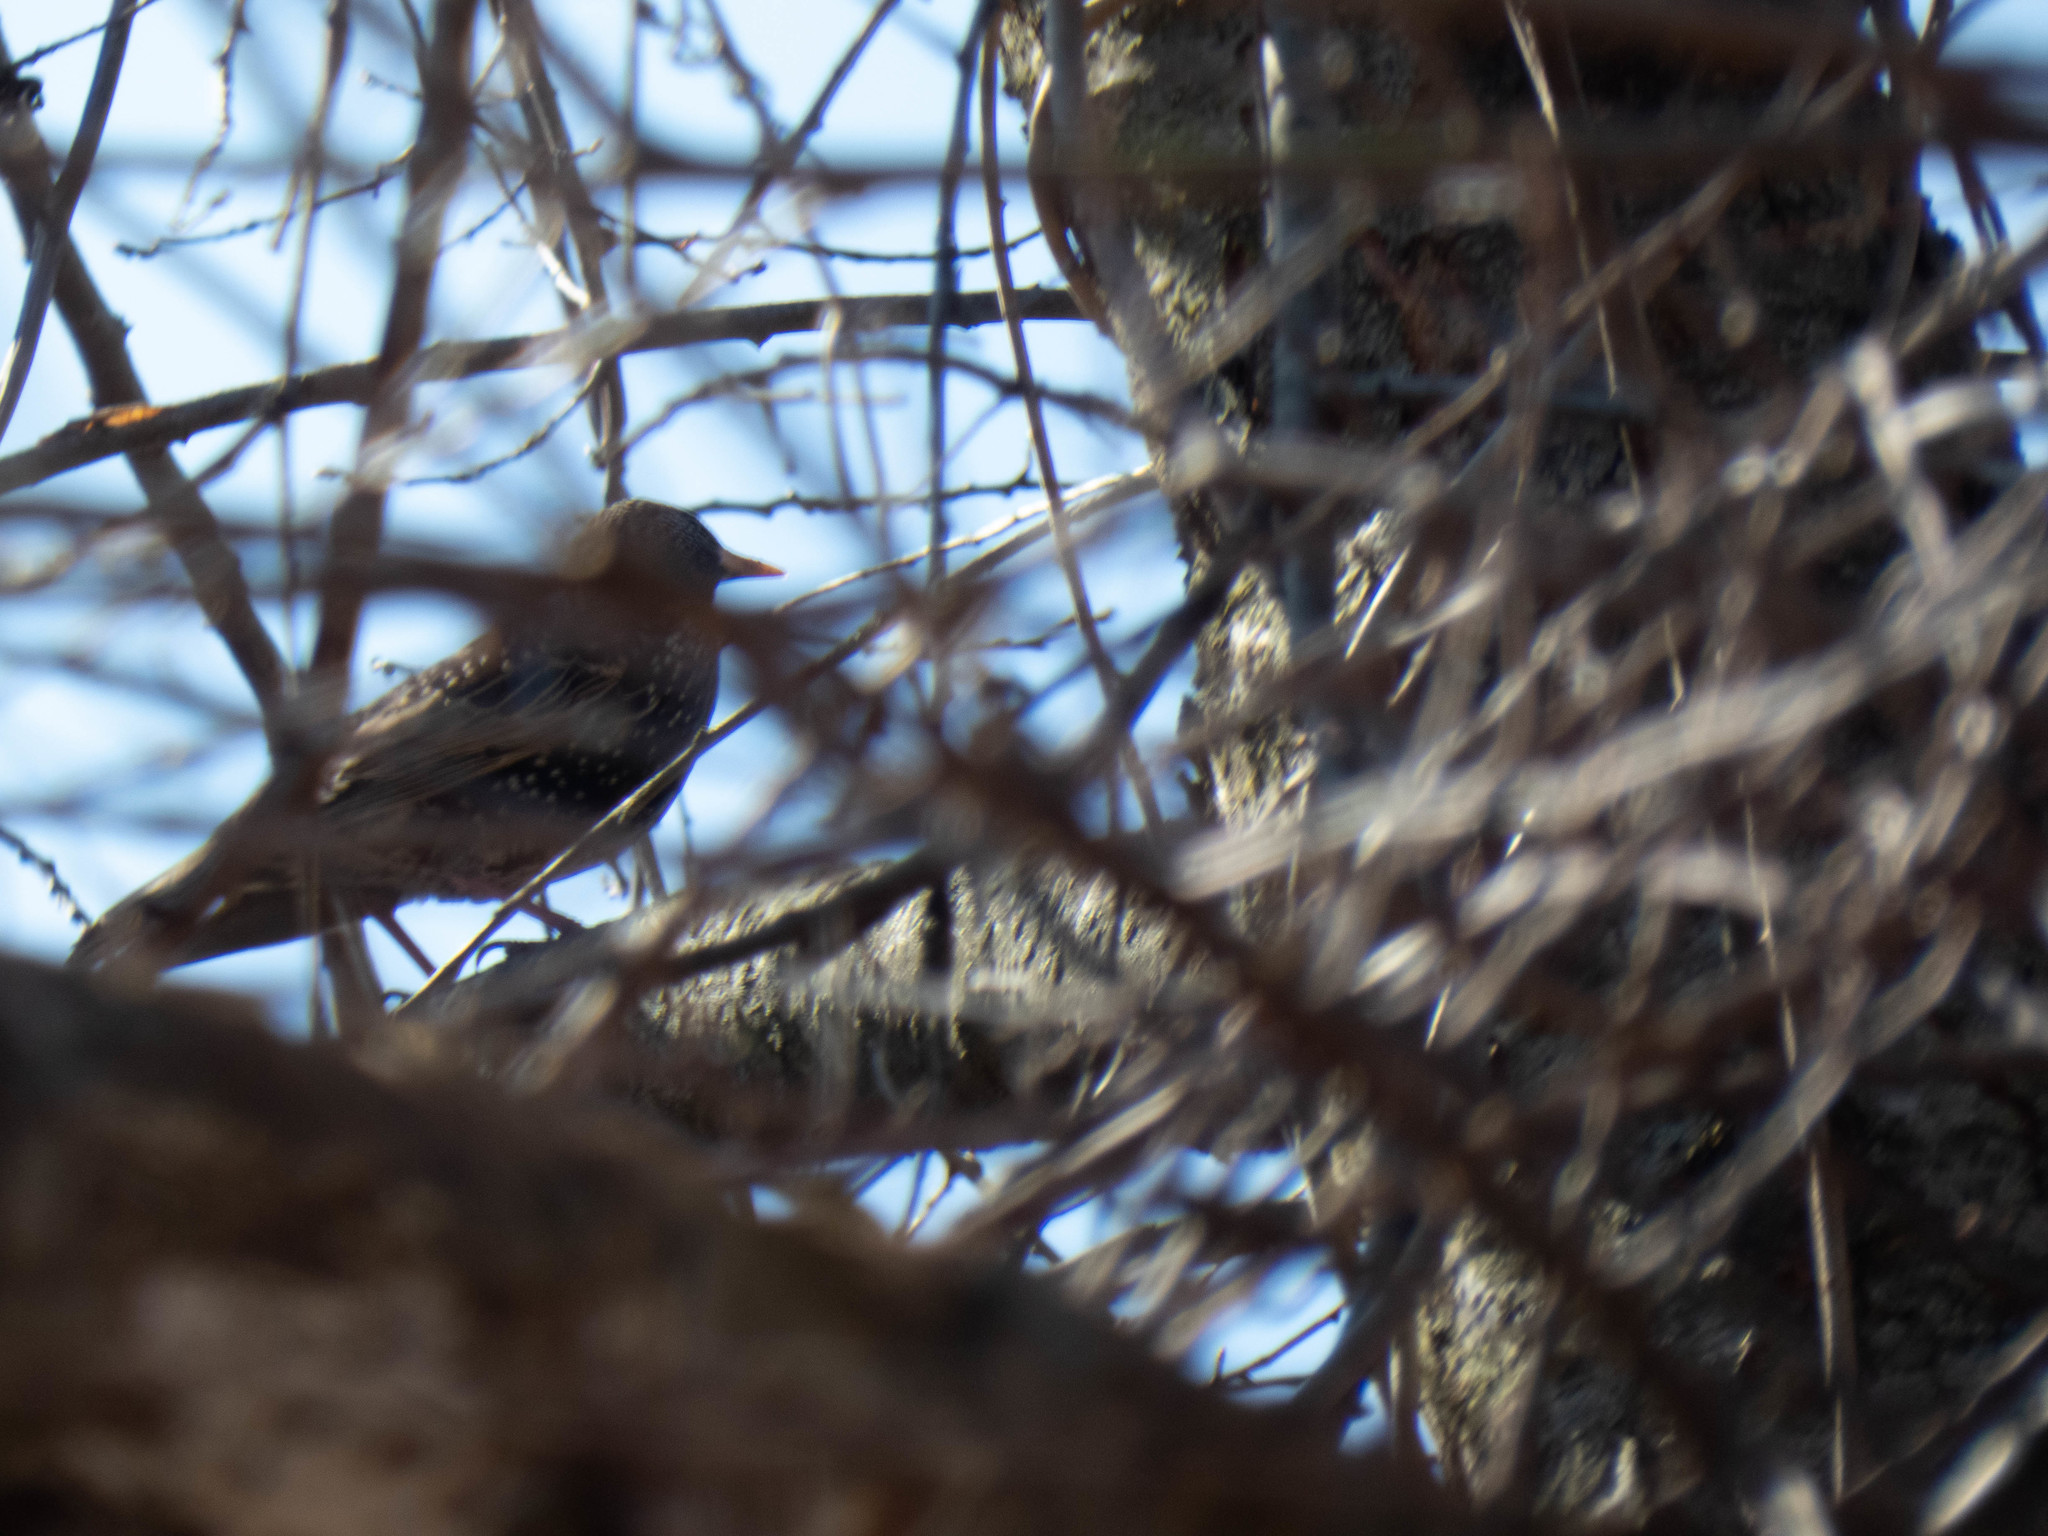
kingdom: Animalia
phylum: Chordata
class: Aves
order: Passeriformes
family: Sturnidae
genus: Sturnus
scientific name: Sturnus vulgaris
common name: Common starling
